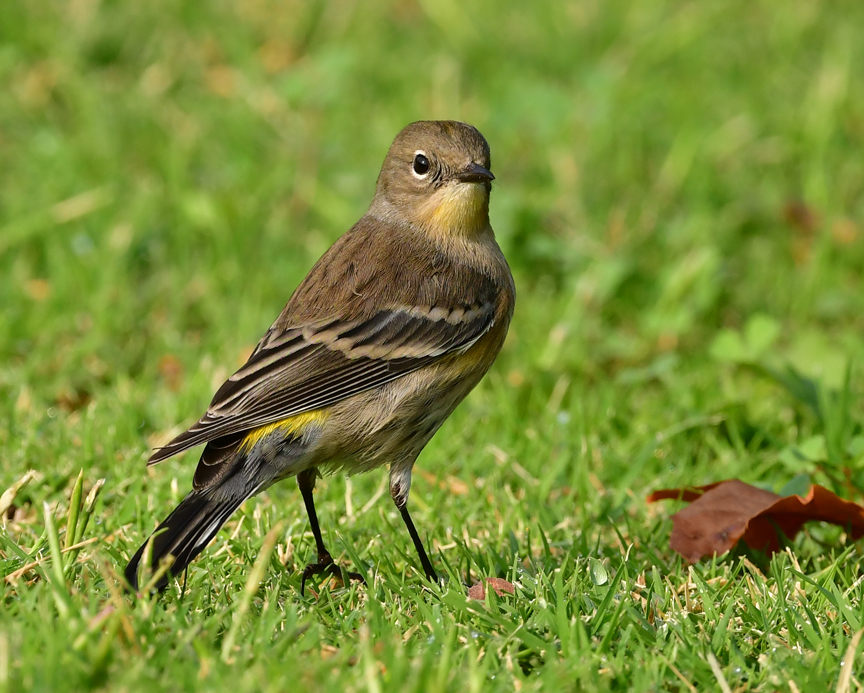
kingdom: Animalia
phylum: Chordata
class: Aves
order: Passeriformes
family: Parulidae
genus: Setophaga
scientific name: Setophaga coronata
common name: Myrtle warbler
